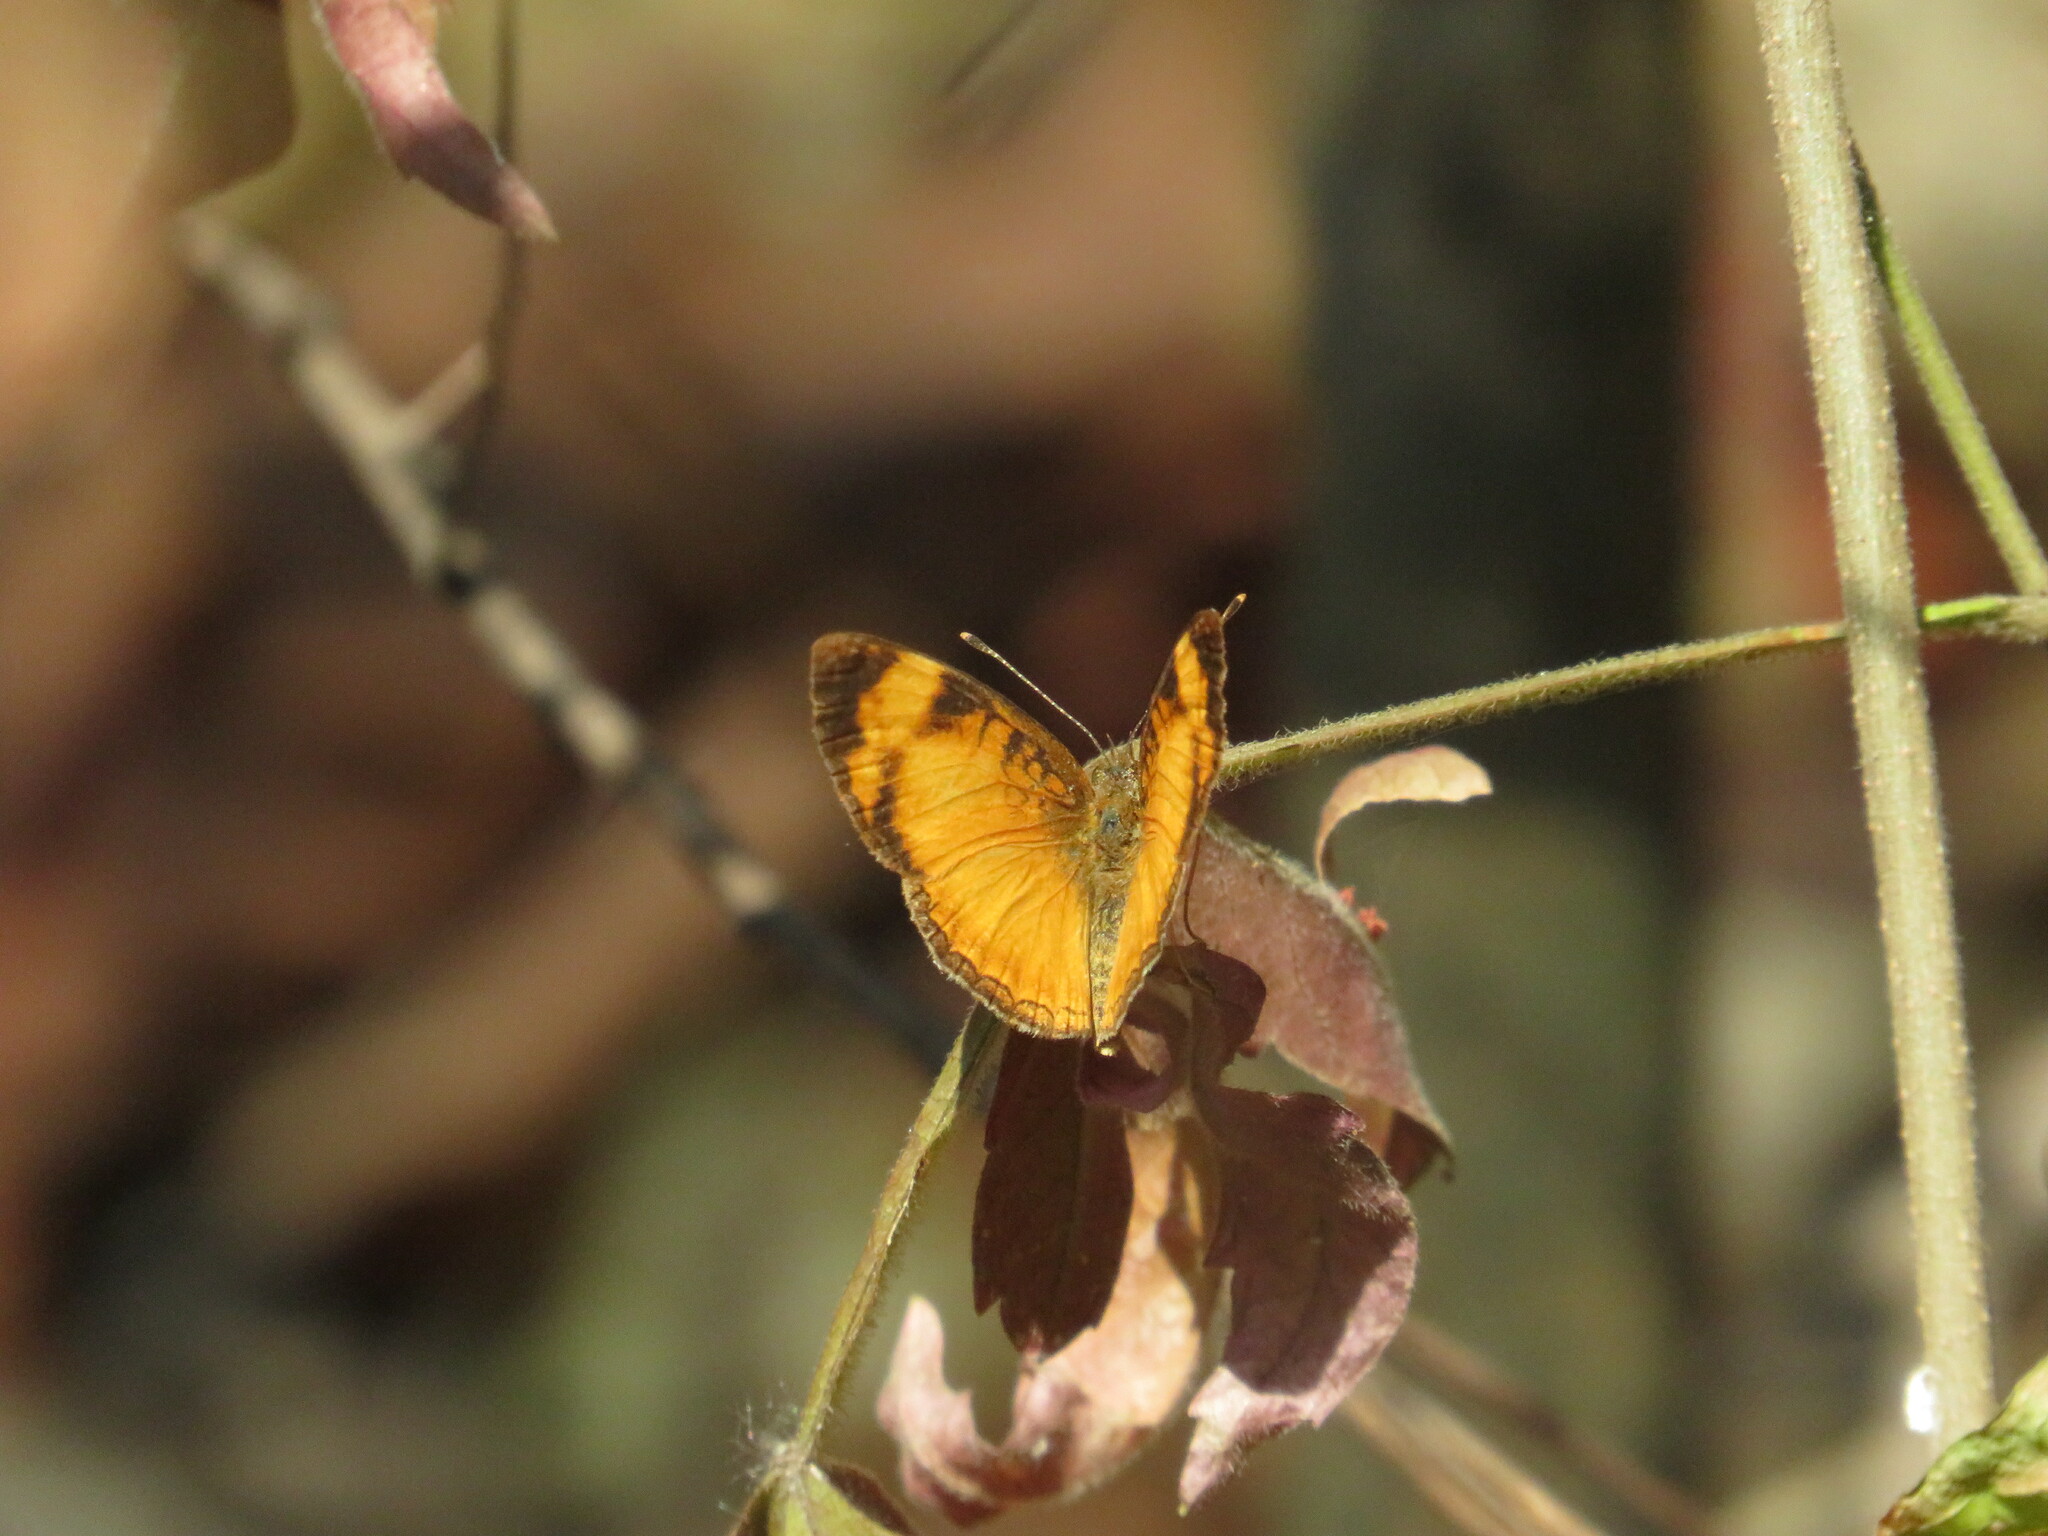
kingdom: Animalia
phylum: Arthropoda
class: Insecta
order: Lepidoptera
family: Nymphalidae
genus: Ortilia
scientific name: Ortilia gentina
